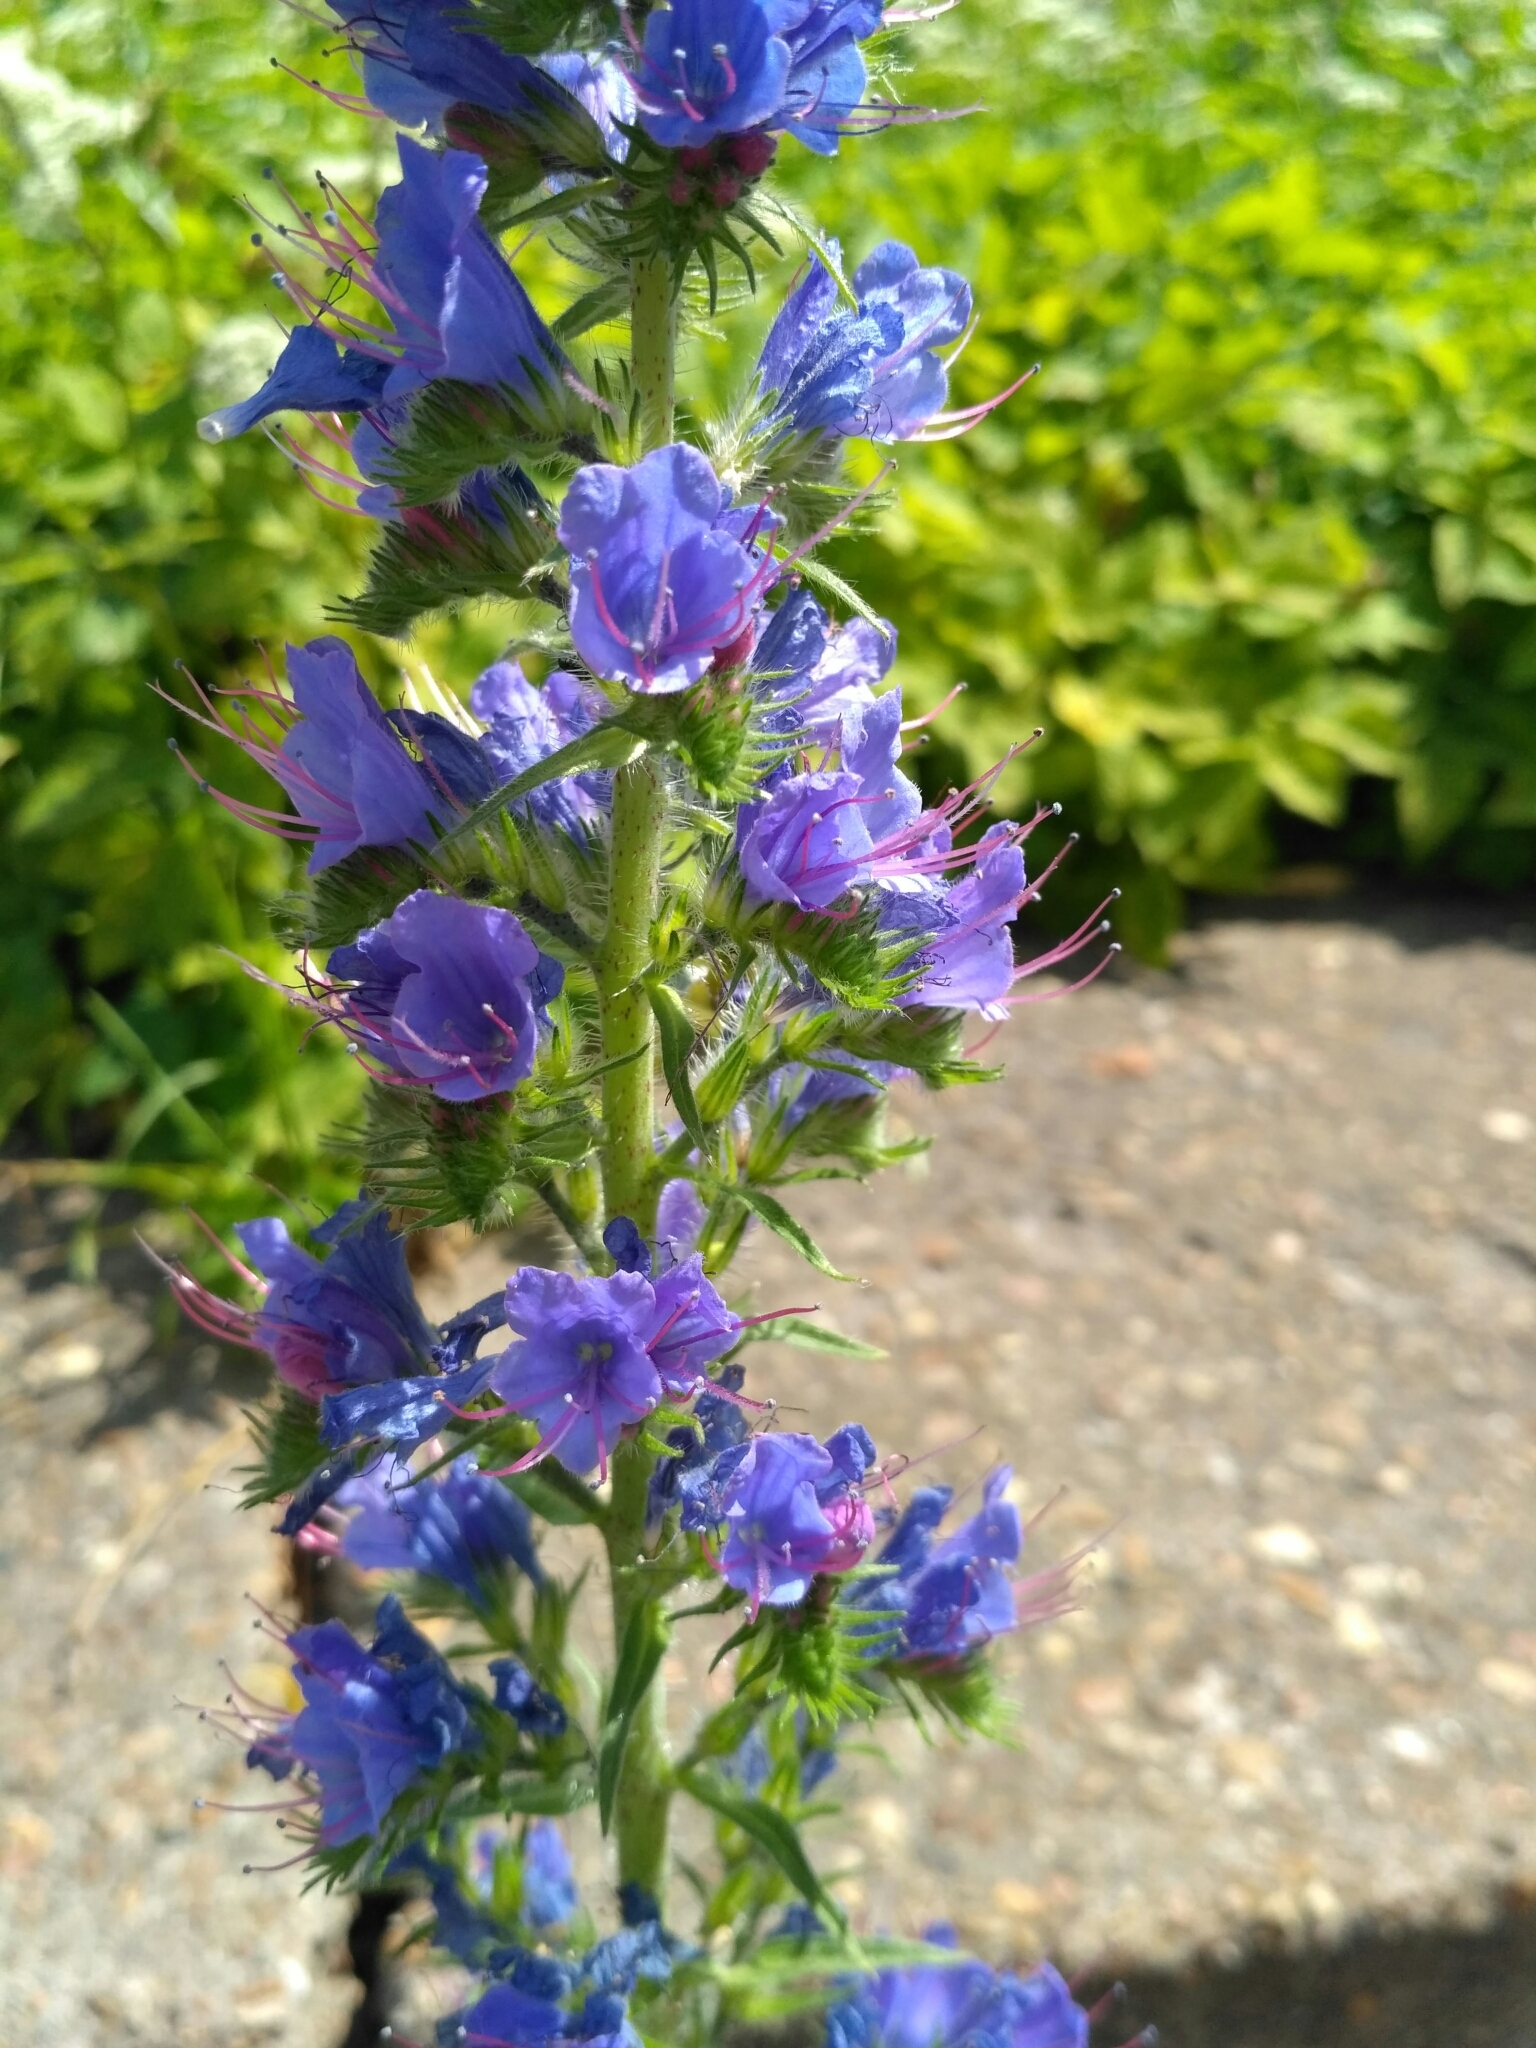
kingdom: Plantae
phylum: Tracheophyta
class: Magnoliopsida
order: Boraginales
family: Boraginaceae
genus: Echium
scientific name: Echium vulgare
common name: Common viper's bugloss
